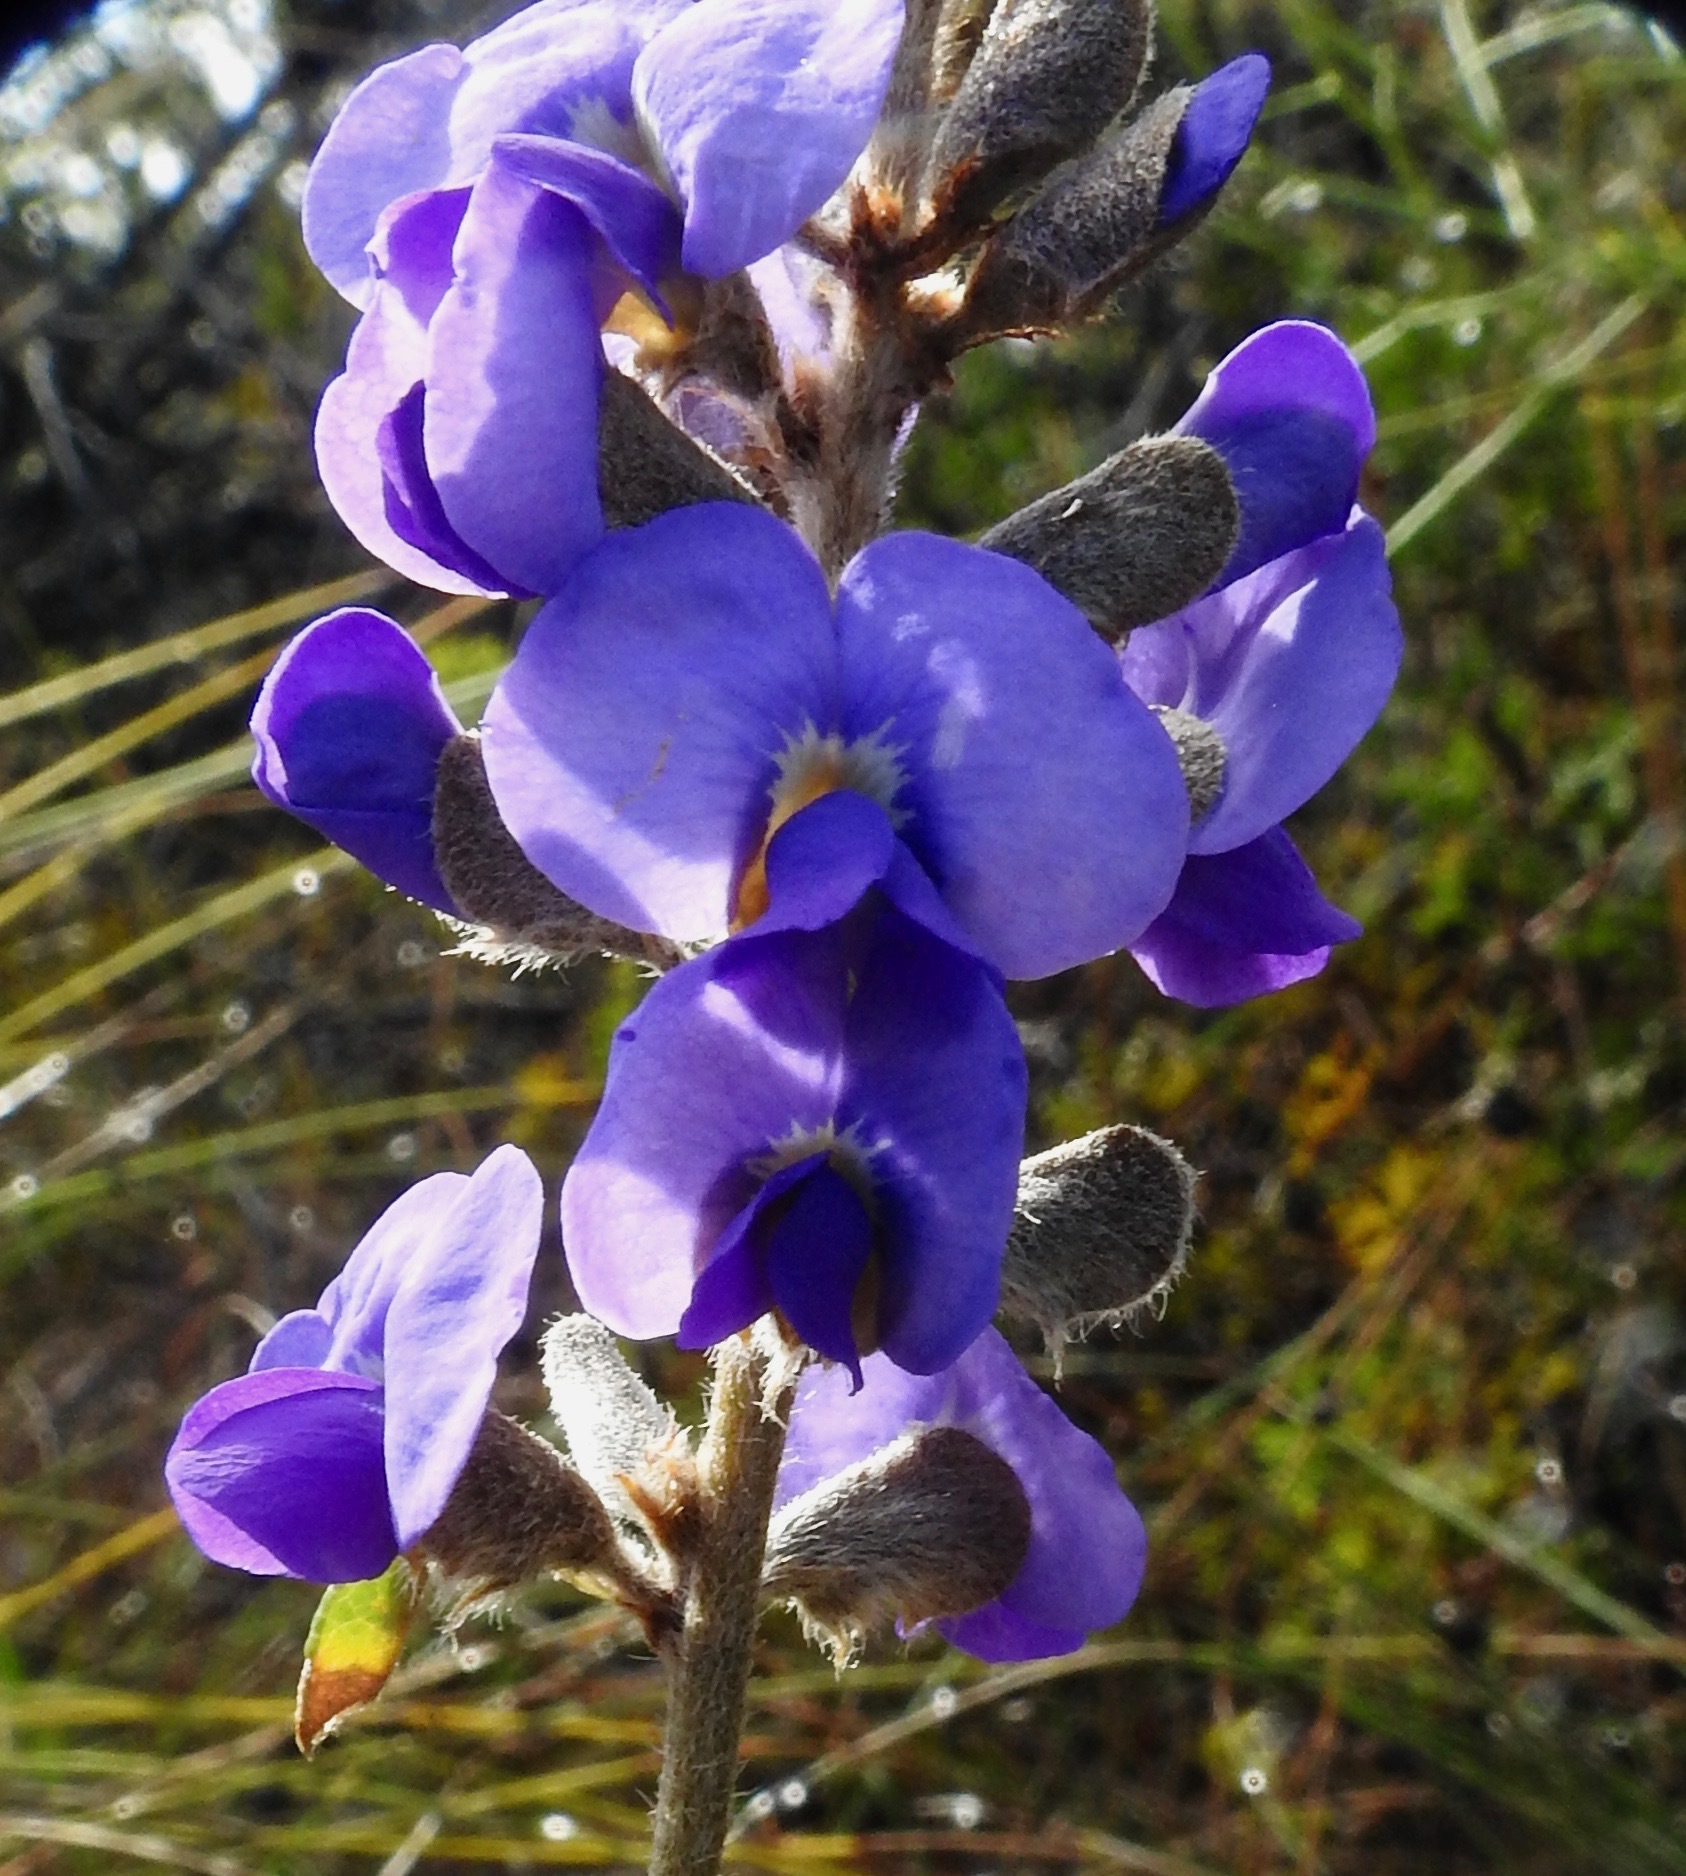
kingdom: Plantae
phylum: Tracheophyta
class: Magnoliopsida
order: Fabales
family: Fabaceae
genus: Hovea
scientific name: Hovea trisperma
